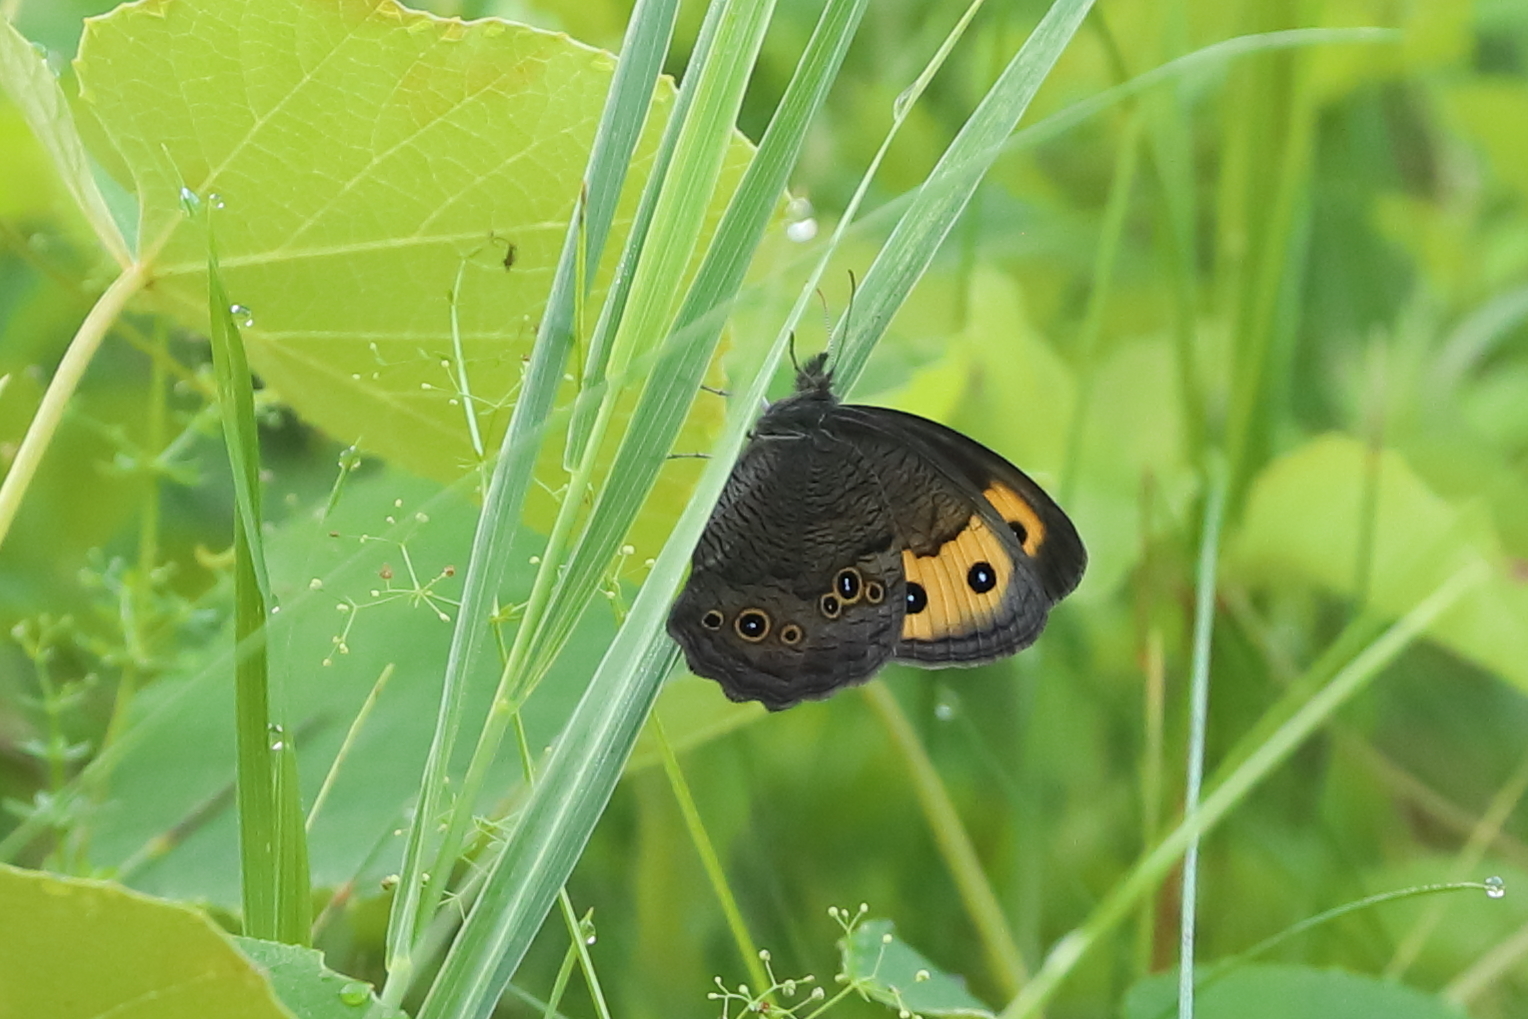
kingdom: Animalia
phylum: Arthropoda
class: Insecta
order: Lepidoptera
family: Nymphalidae
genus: Cercyonis
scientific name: Cercyonis pegala
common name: Common wood-nymph
